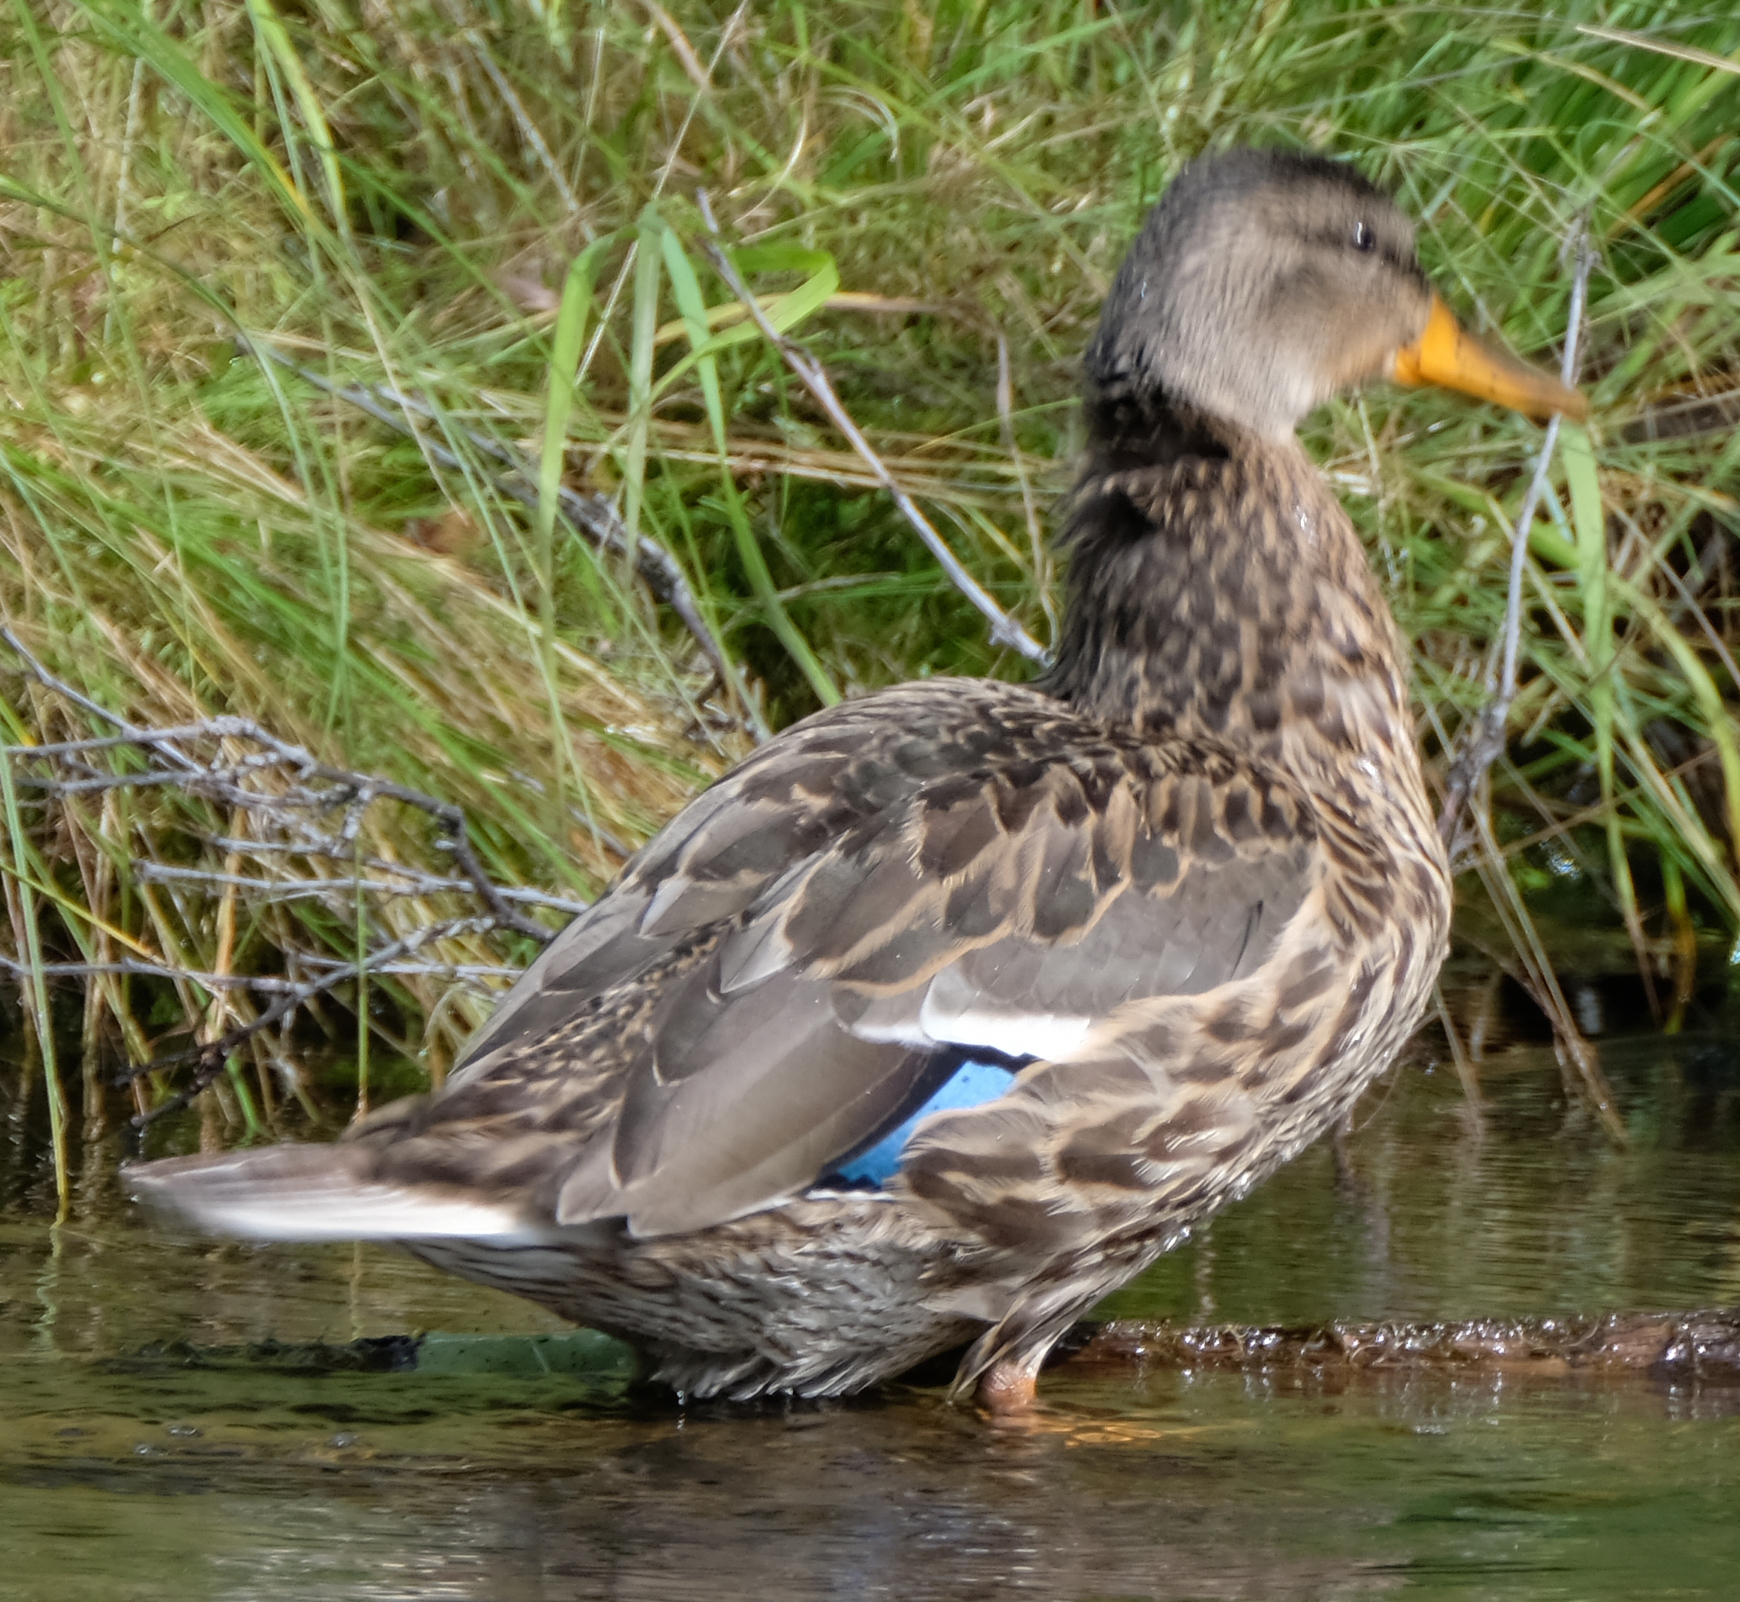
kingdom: Animalia
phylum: Chordata
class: Aves
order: Anseriformes
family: Anatidae
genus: Anas
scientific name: Anas platyrhynchos
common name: Mallard
